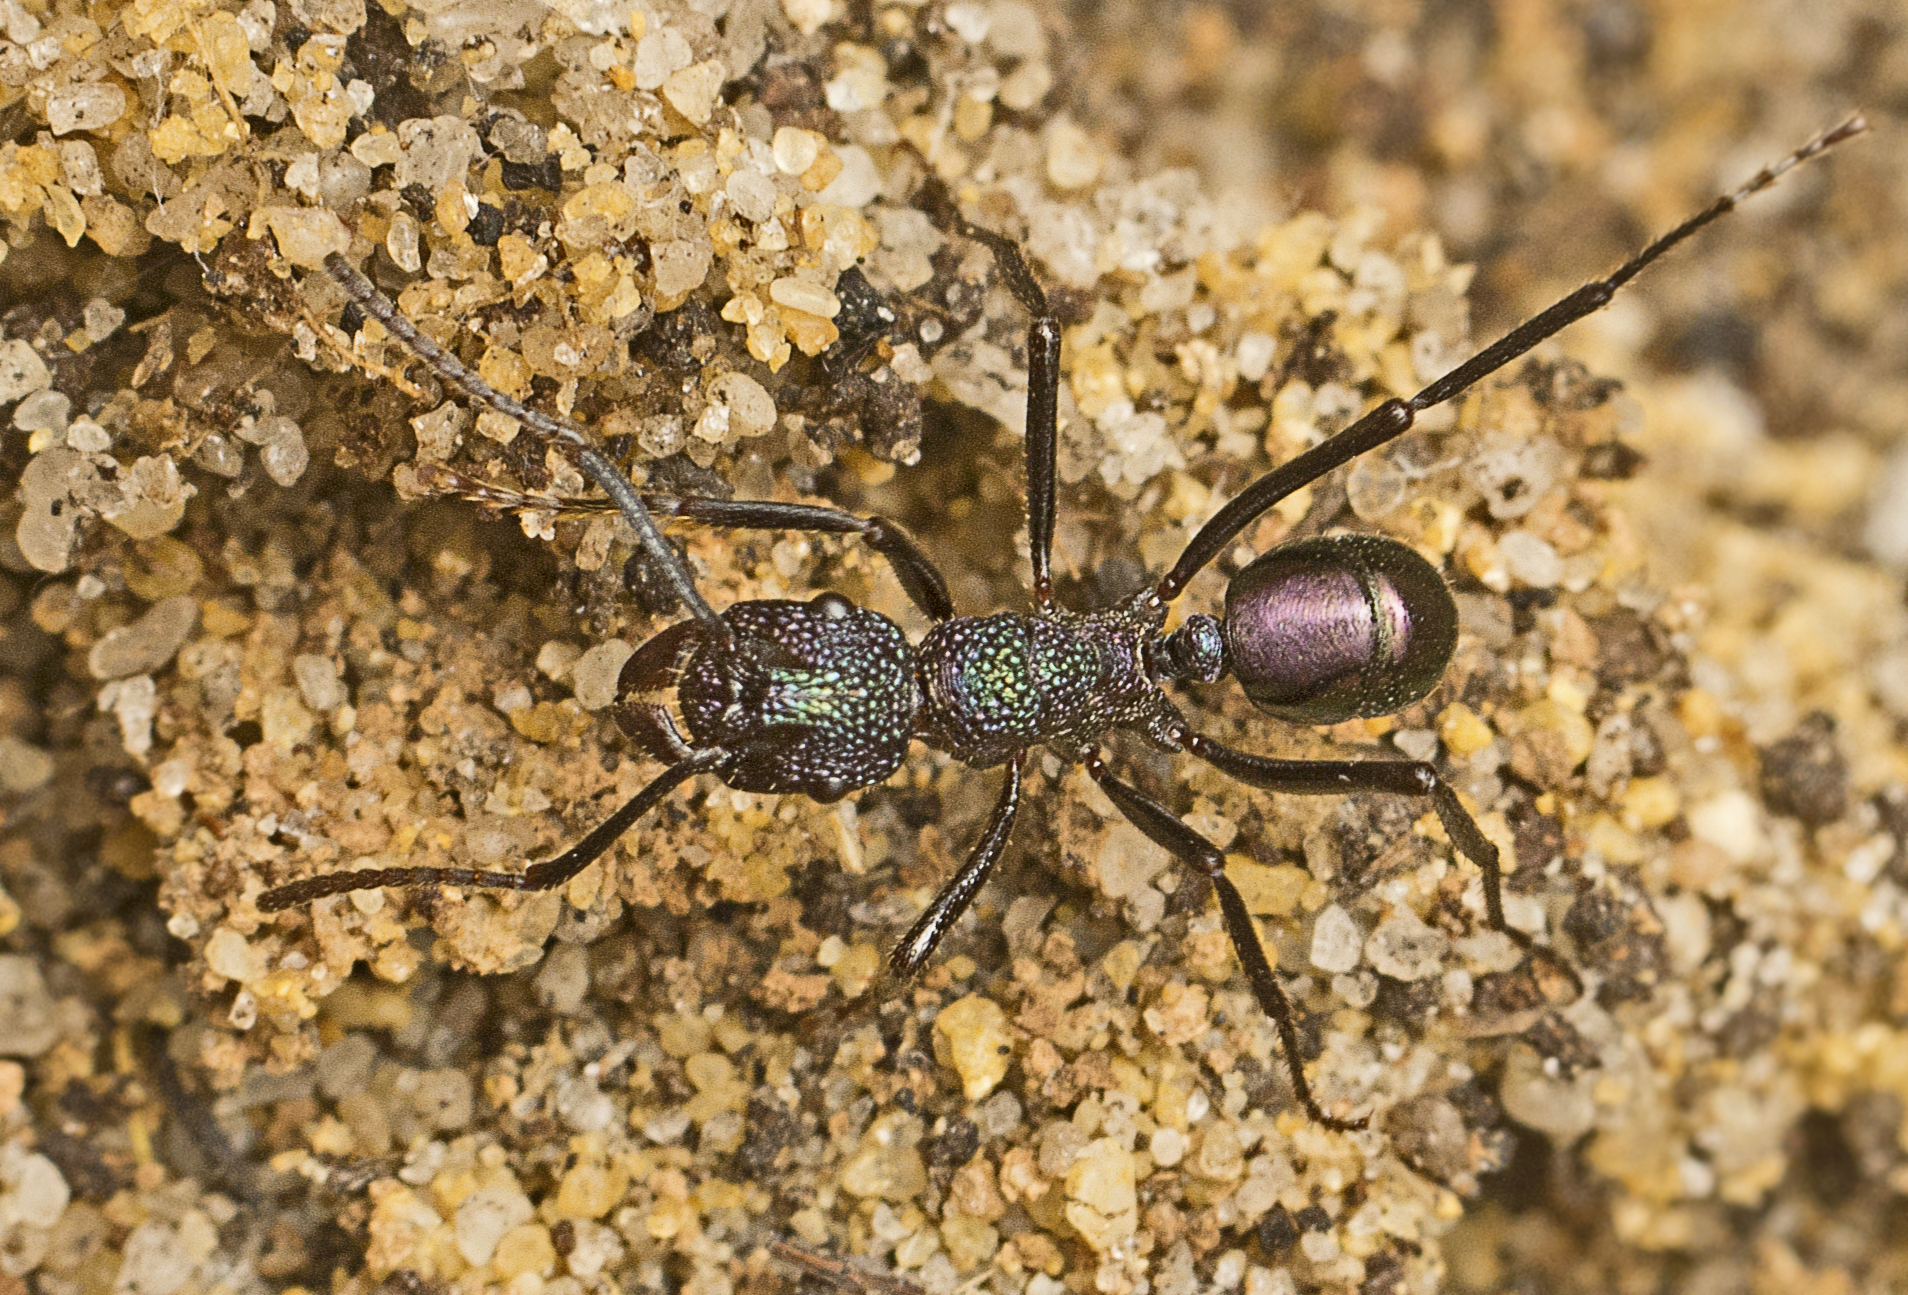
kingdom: Animalia
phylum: Arthropoda
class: Insecta
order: Hymenoptera
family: Formicidae
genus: Rhytidoponera
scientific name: Rhytidoponera violacea
